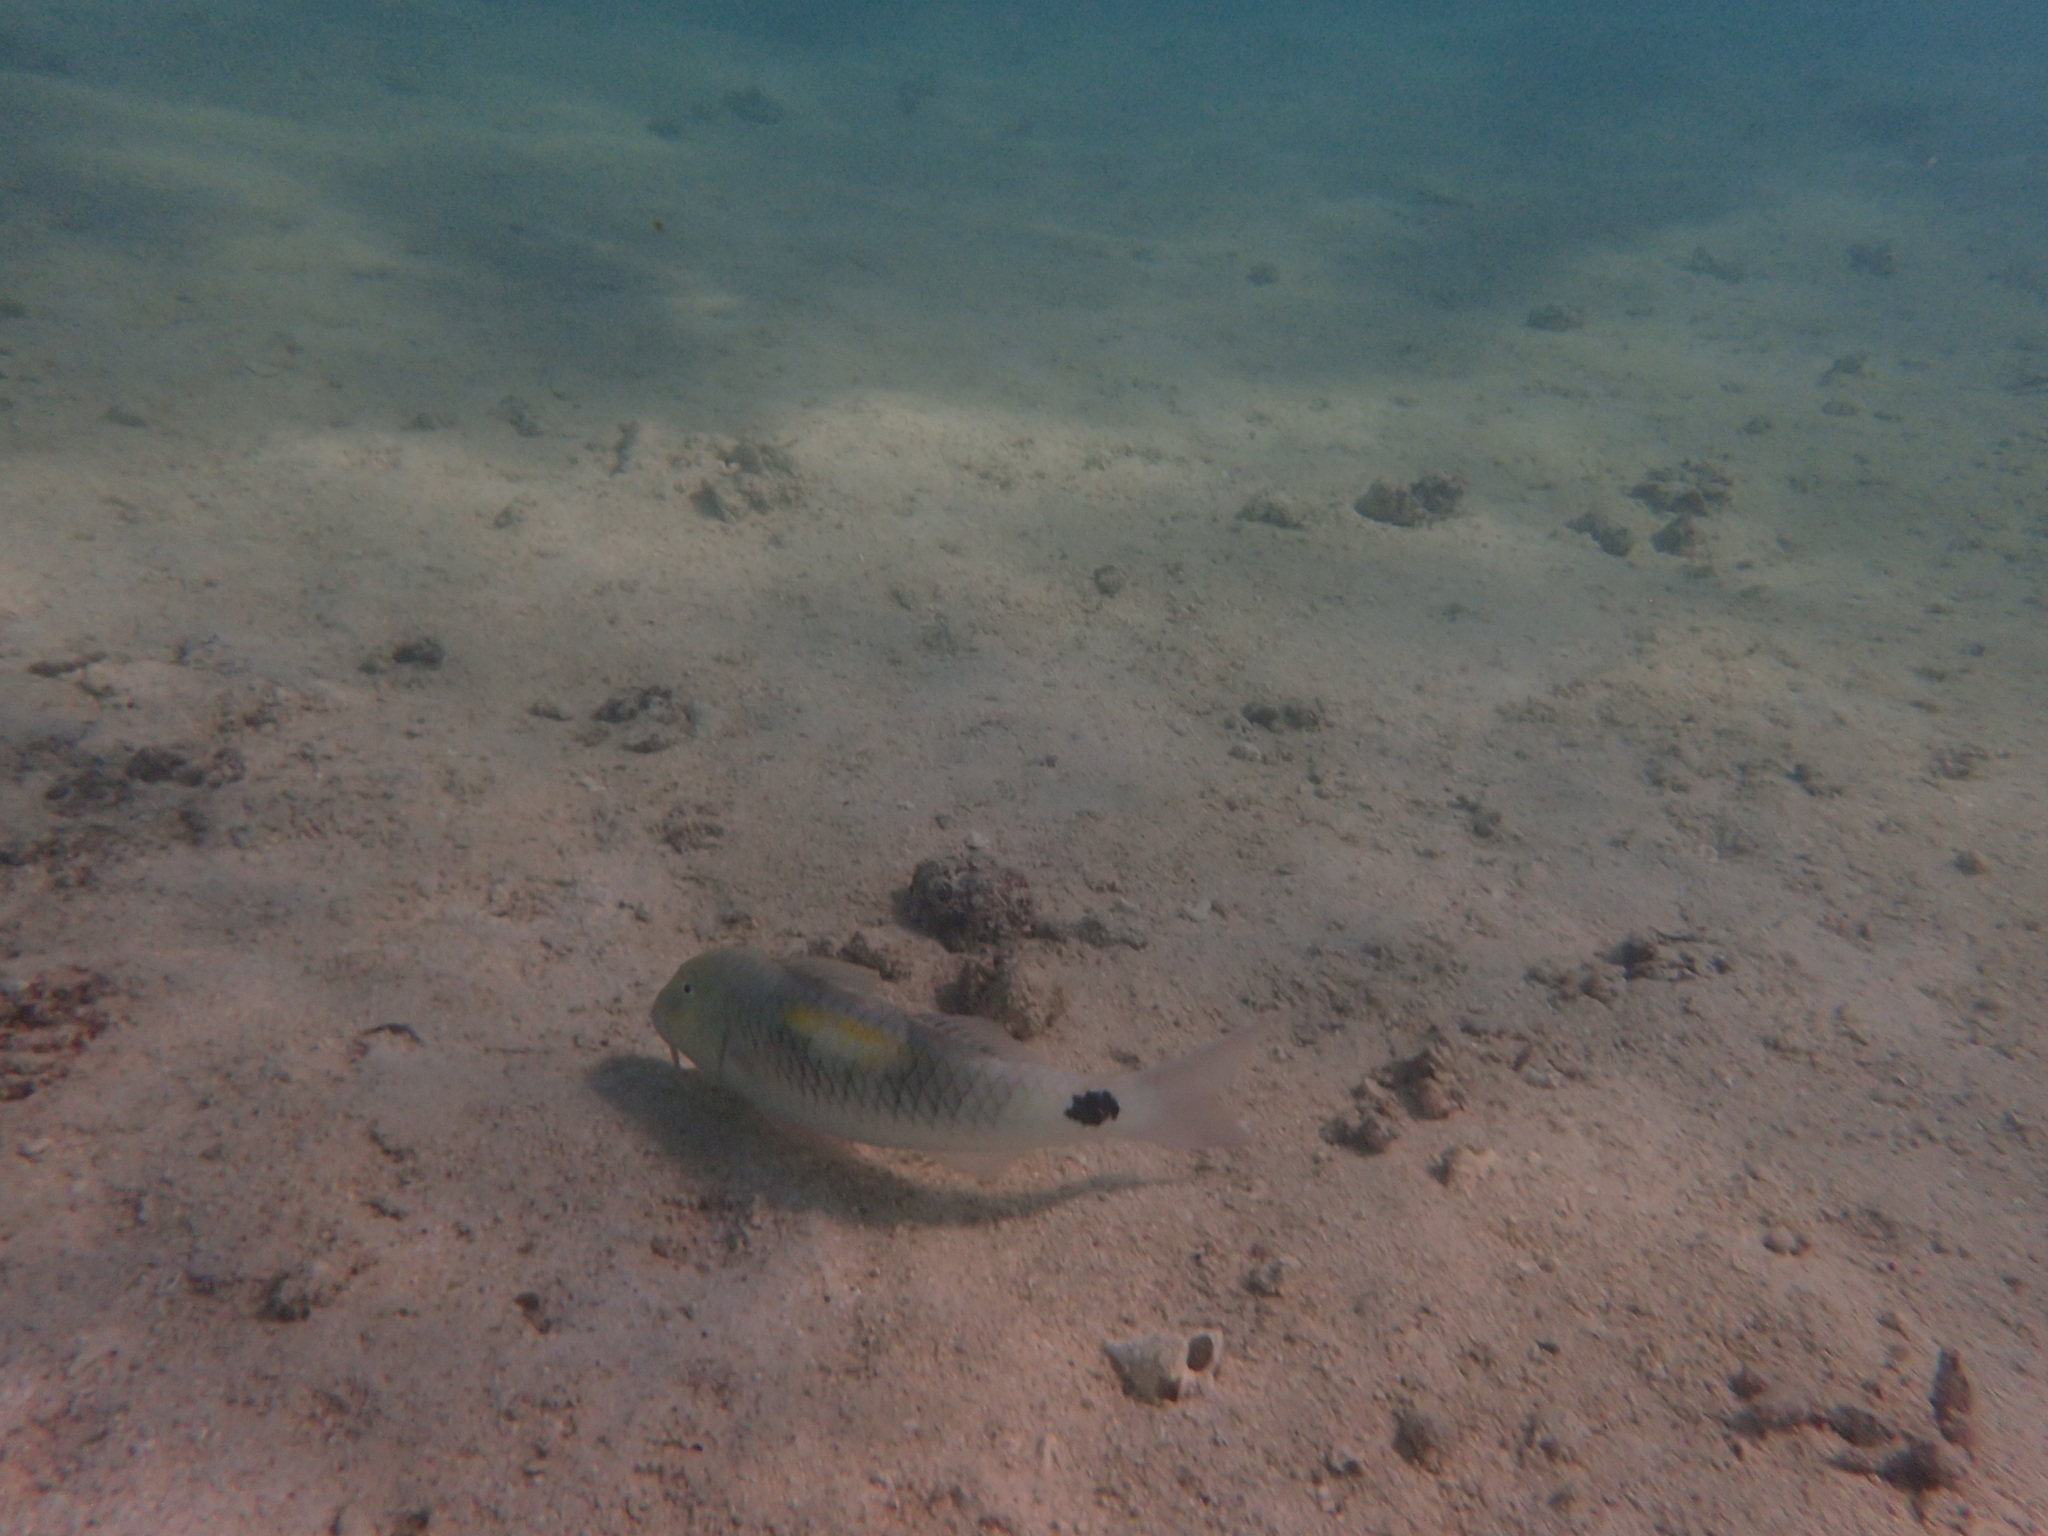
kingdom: Animalia
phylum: Chordata
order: Perciformes
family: Mullidae
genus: Parupeneus
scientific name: Parupeneus indicus
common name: Indian goatfish
